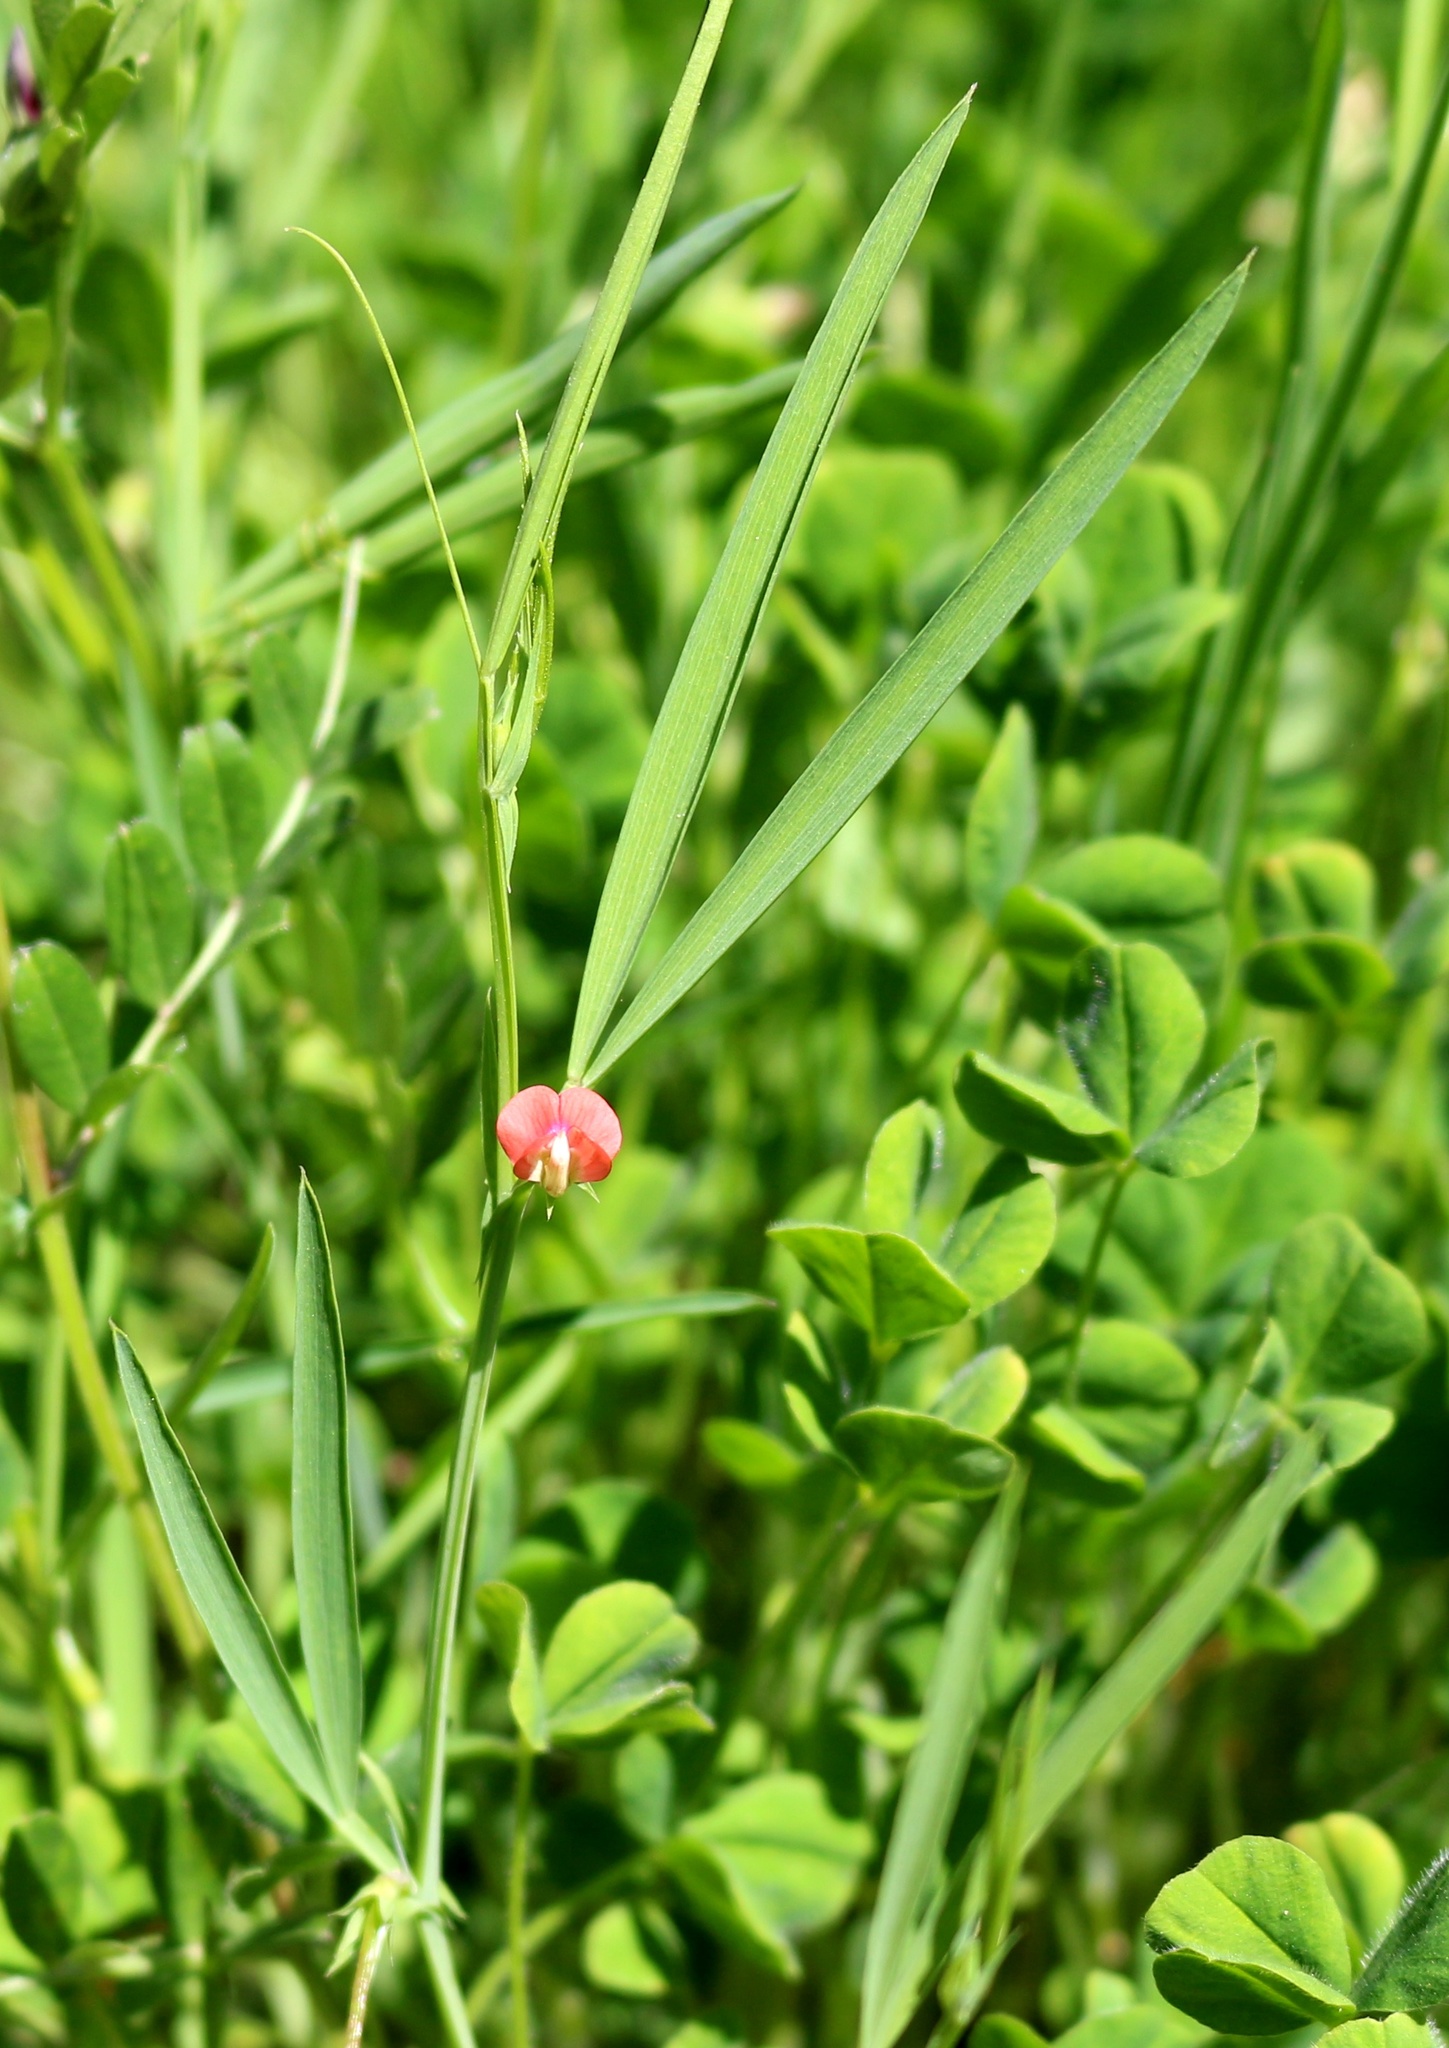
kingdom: Plantae
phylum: Tracheophyta
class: Magnoliopsida
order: Fabales
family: Fabaceae
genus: Lathyrus
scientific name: Lathyrus sphaericus
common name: Grass pea
